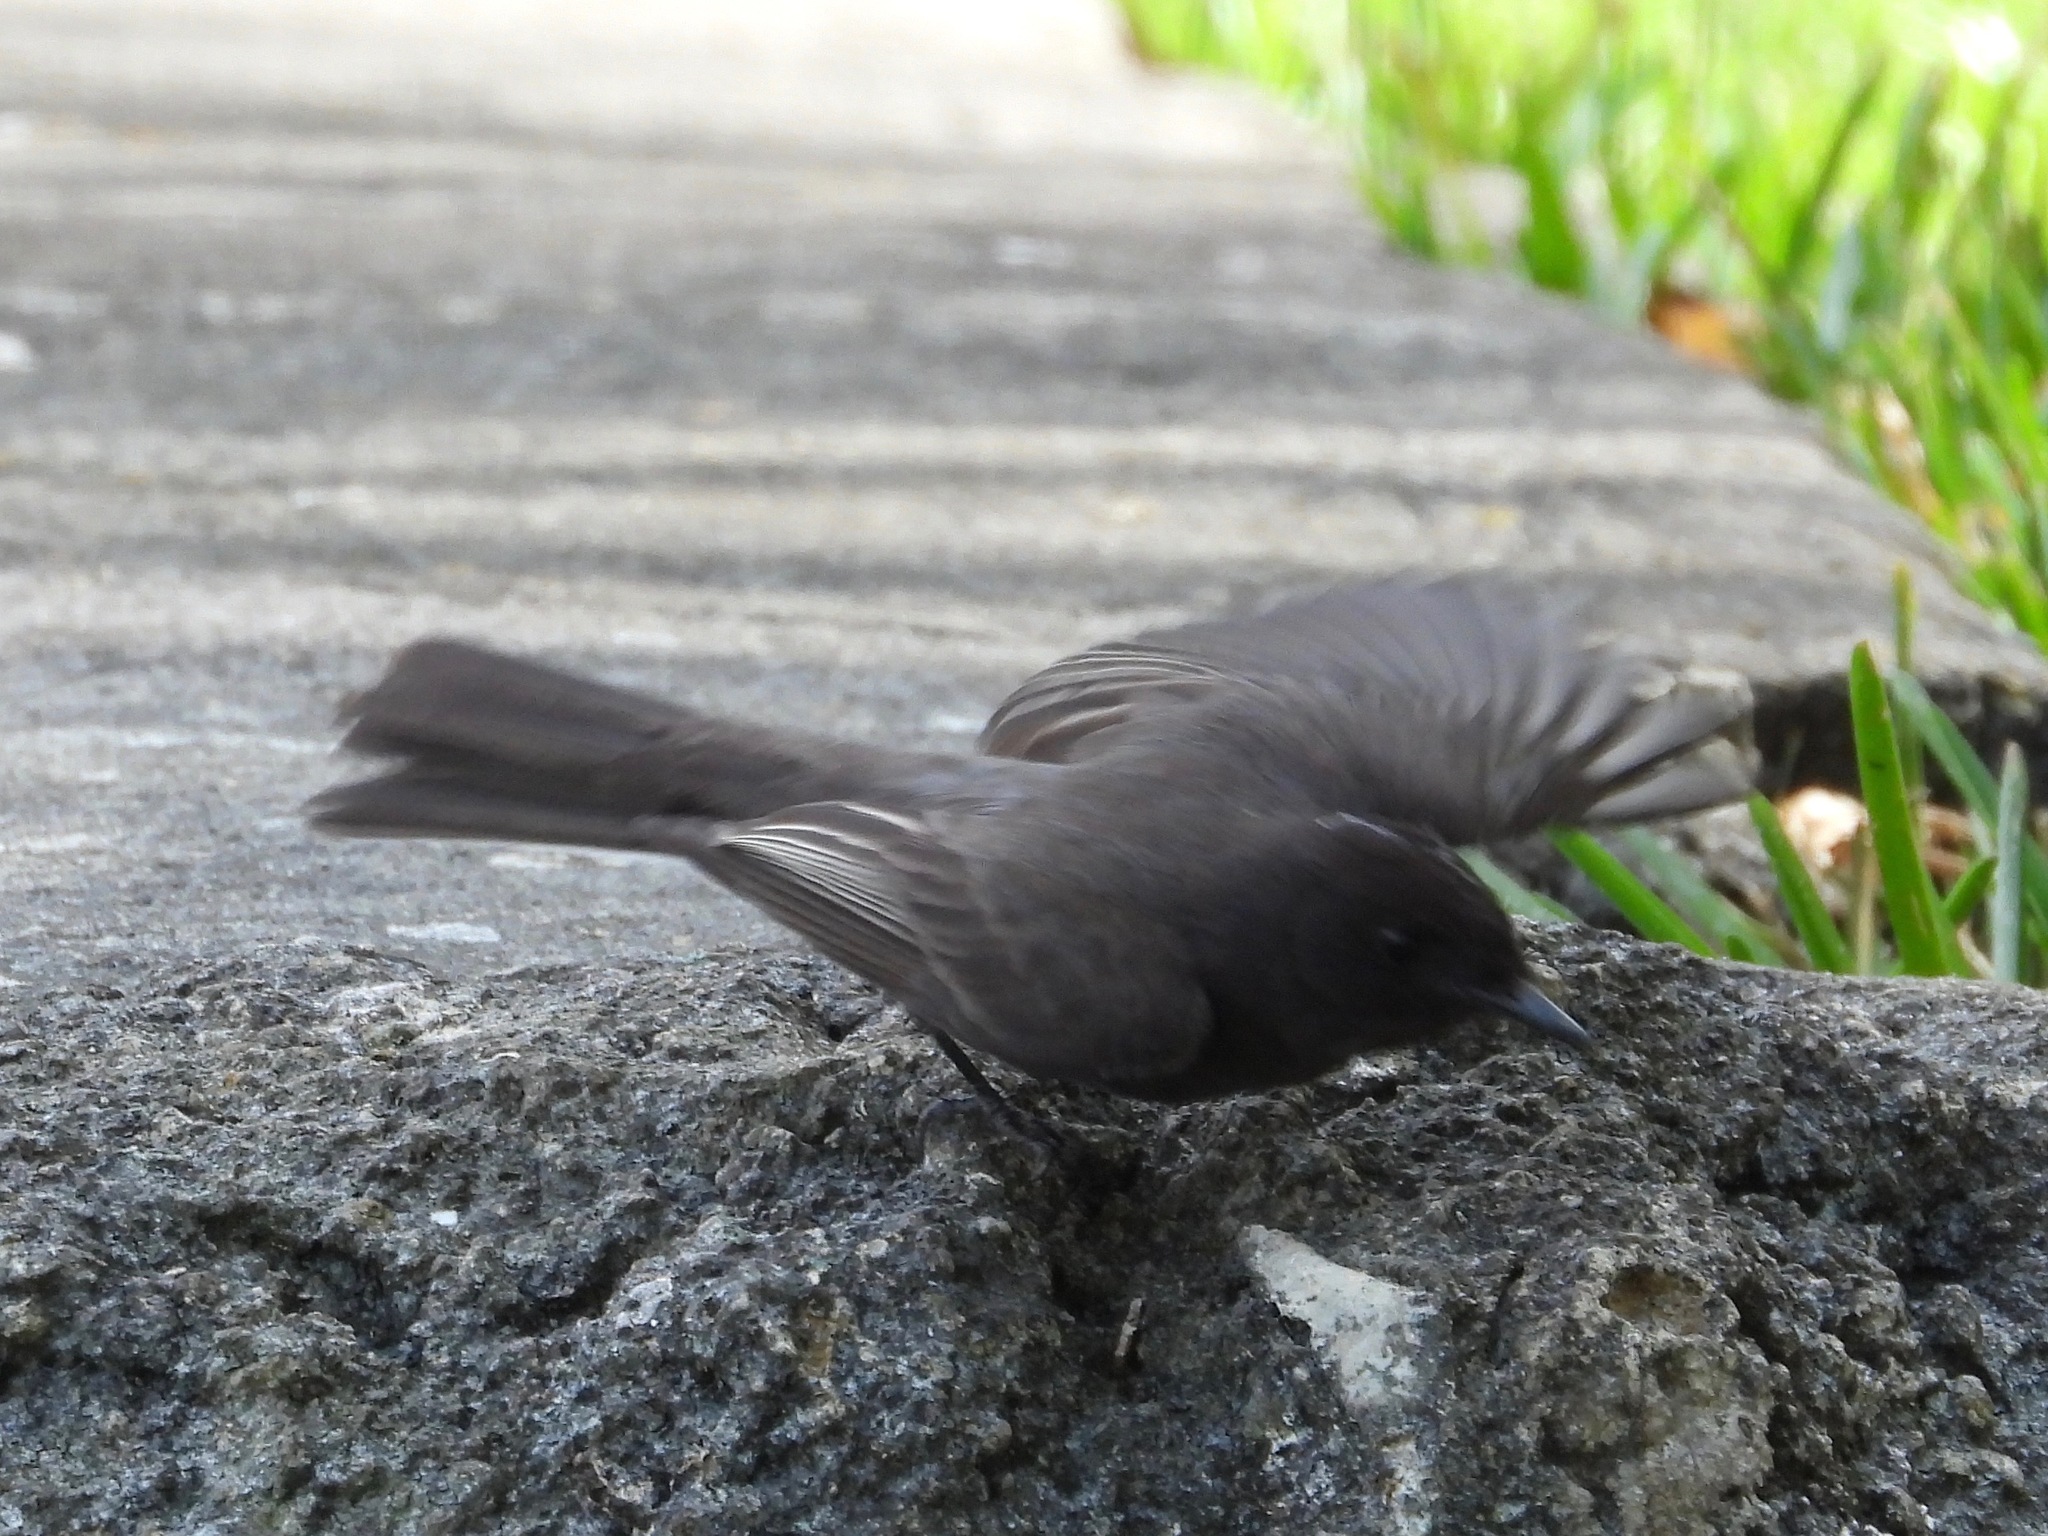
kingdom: Animalia
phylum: Chordata
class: Aves
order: Passeriformes
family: Tyrannidae
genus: Sayornis
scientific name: Sayornis nigricans
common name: Black phoebe
